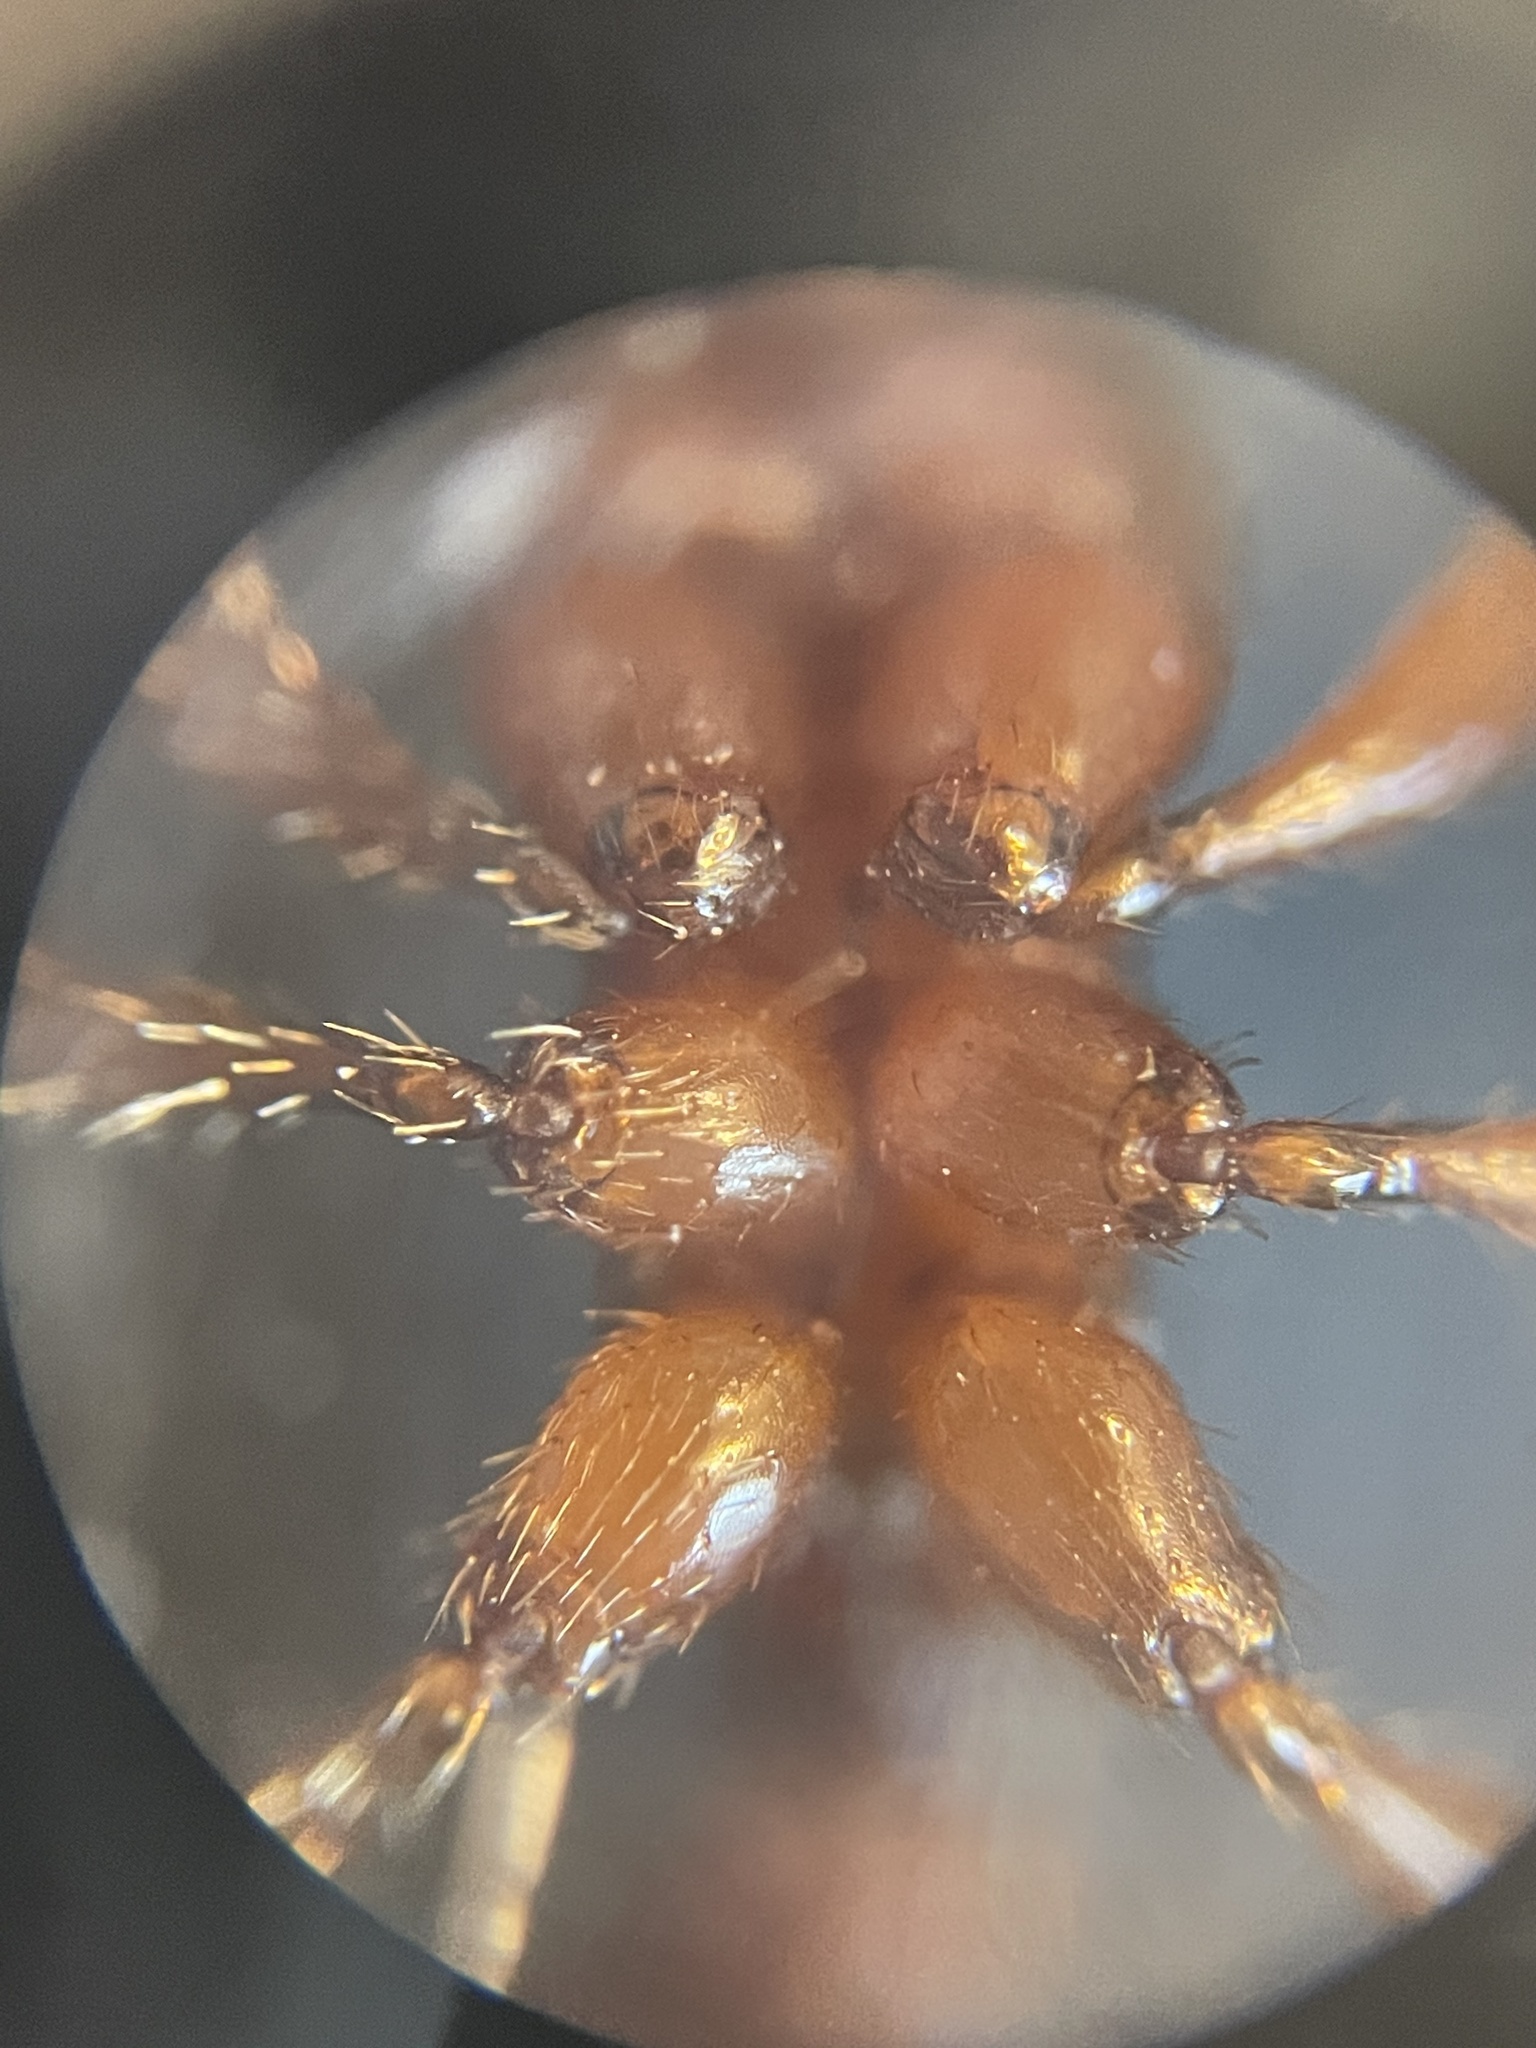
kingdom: Animalia
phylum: Arthropoda
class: Insecta
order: Hymenoptera
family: Formicidae
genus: Pogonomyrmex
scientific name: Pogonomyrmex barbatus
